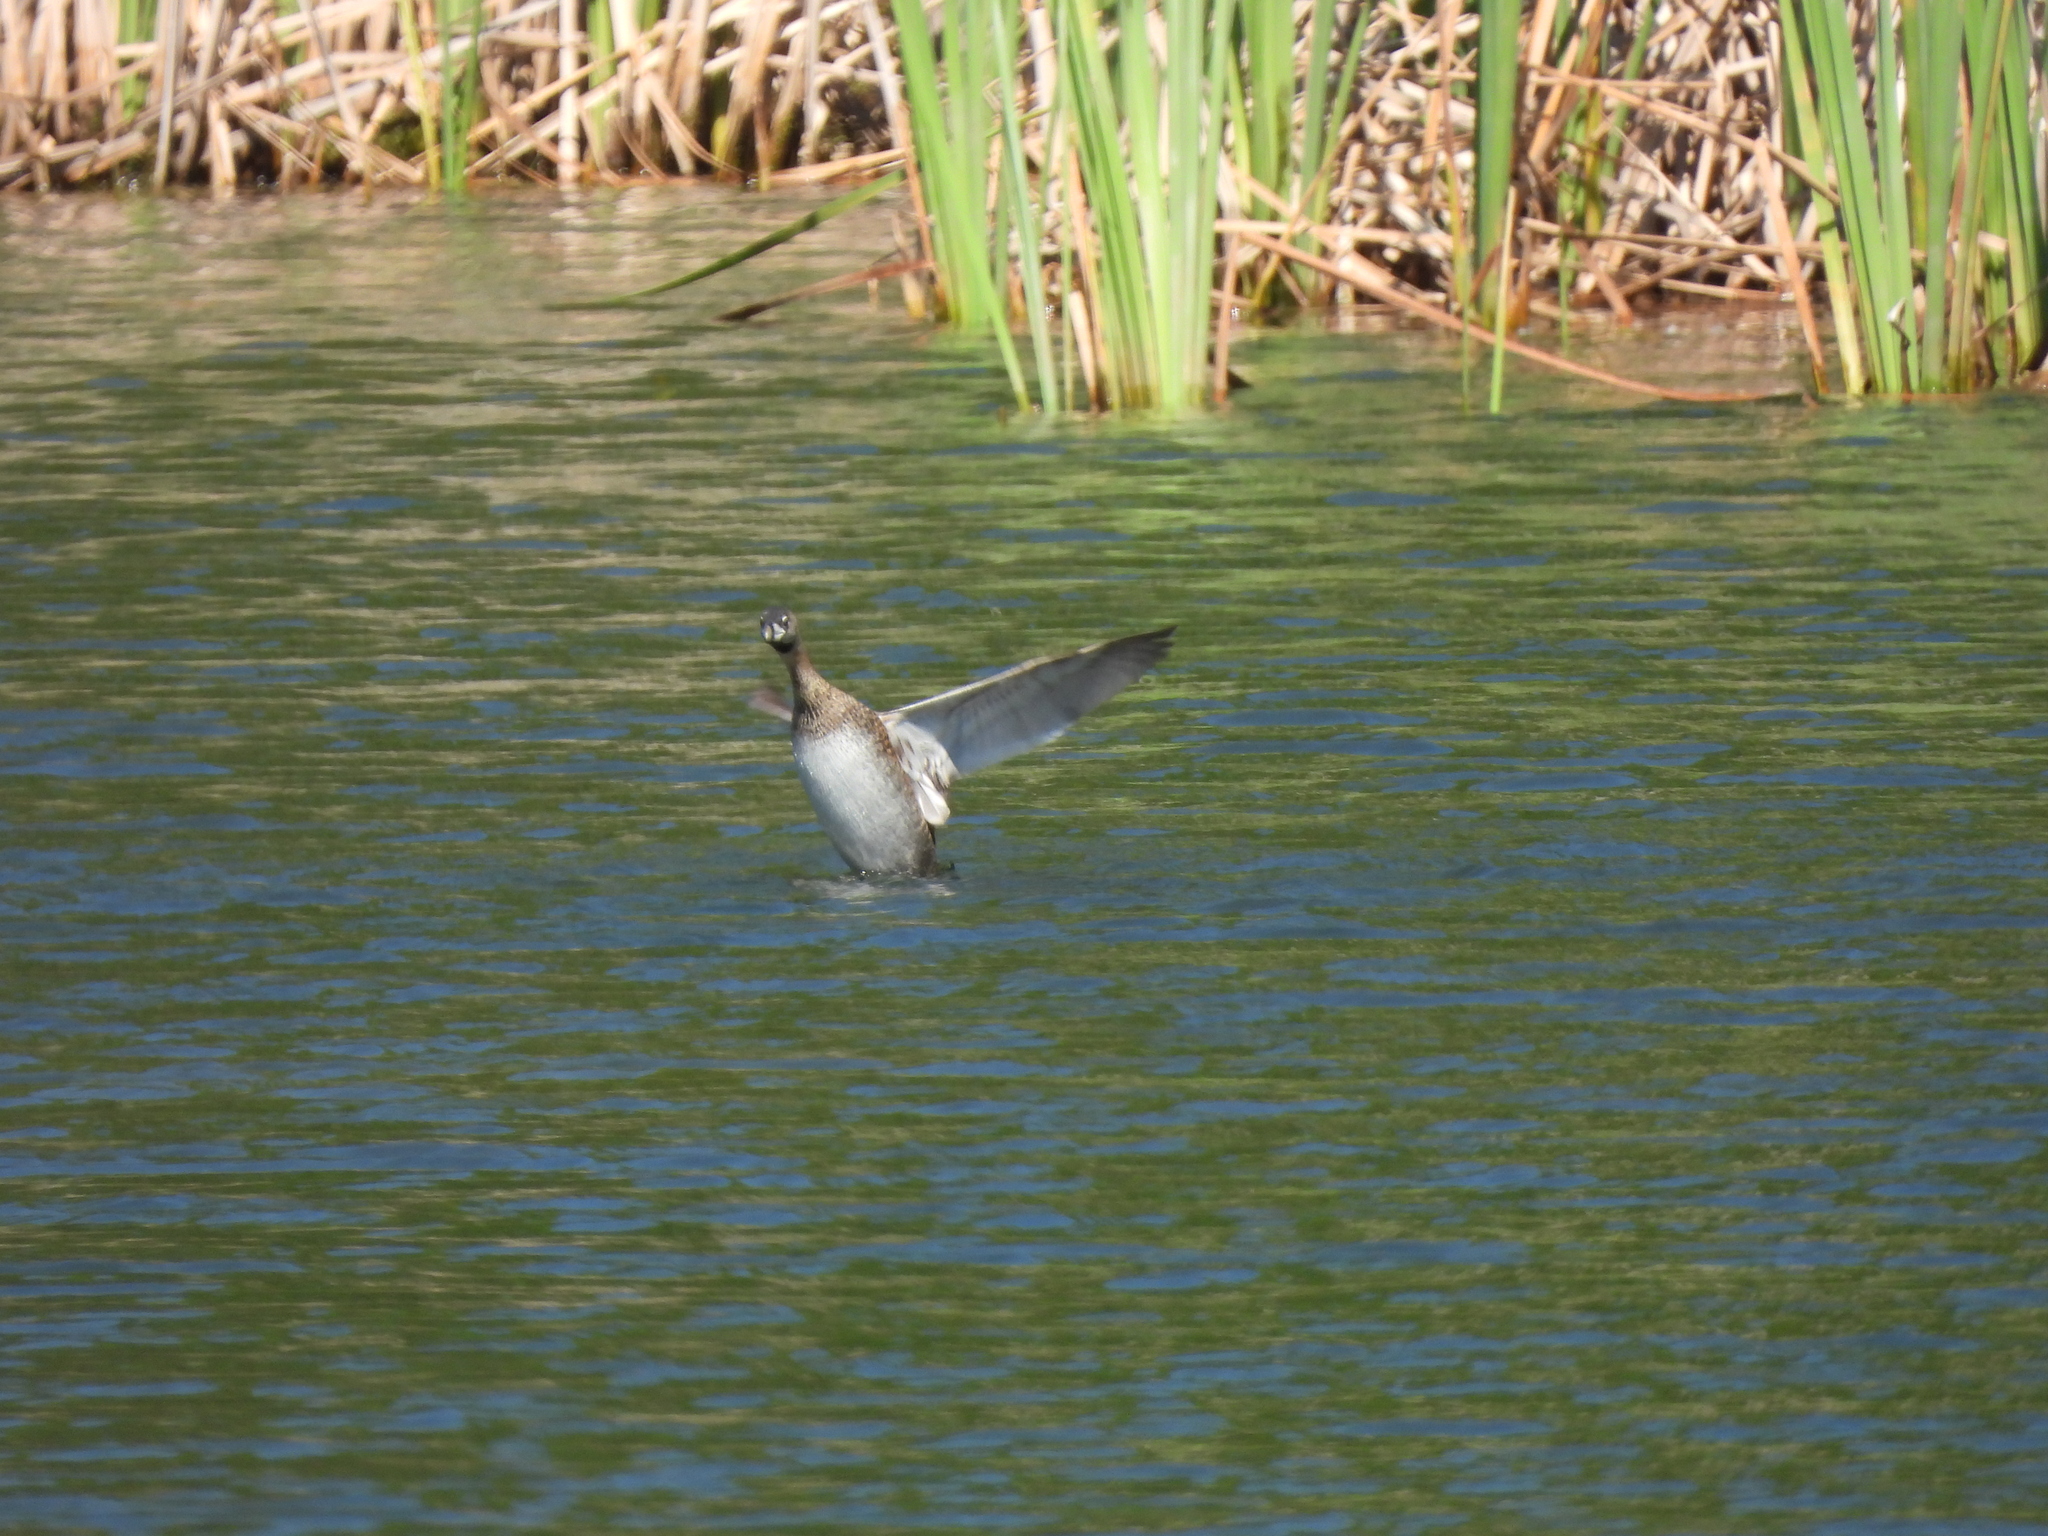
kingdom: Animalia
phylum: Chordata
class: Aves
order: Podicipediformes
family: Podicipedidae
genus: Podilymbus
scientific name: Podilymbus podiceps
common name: Pied-billed grebe
